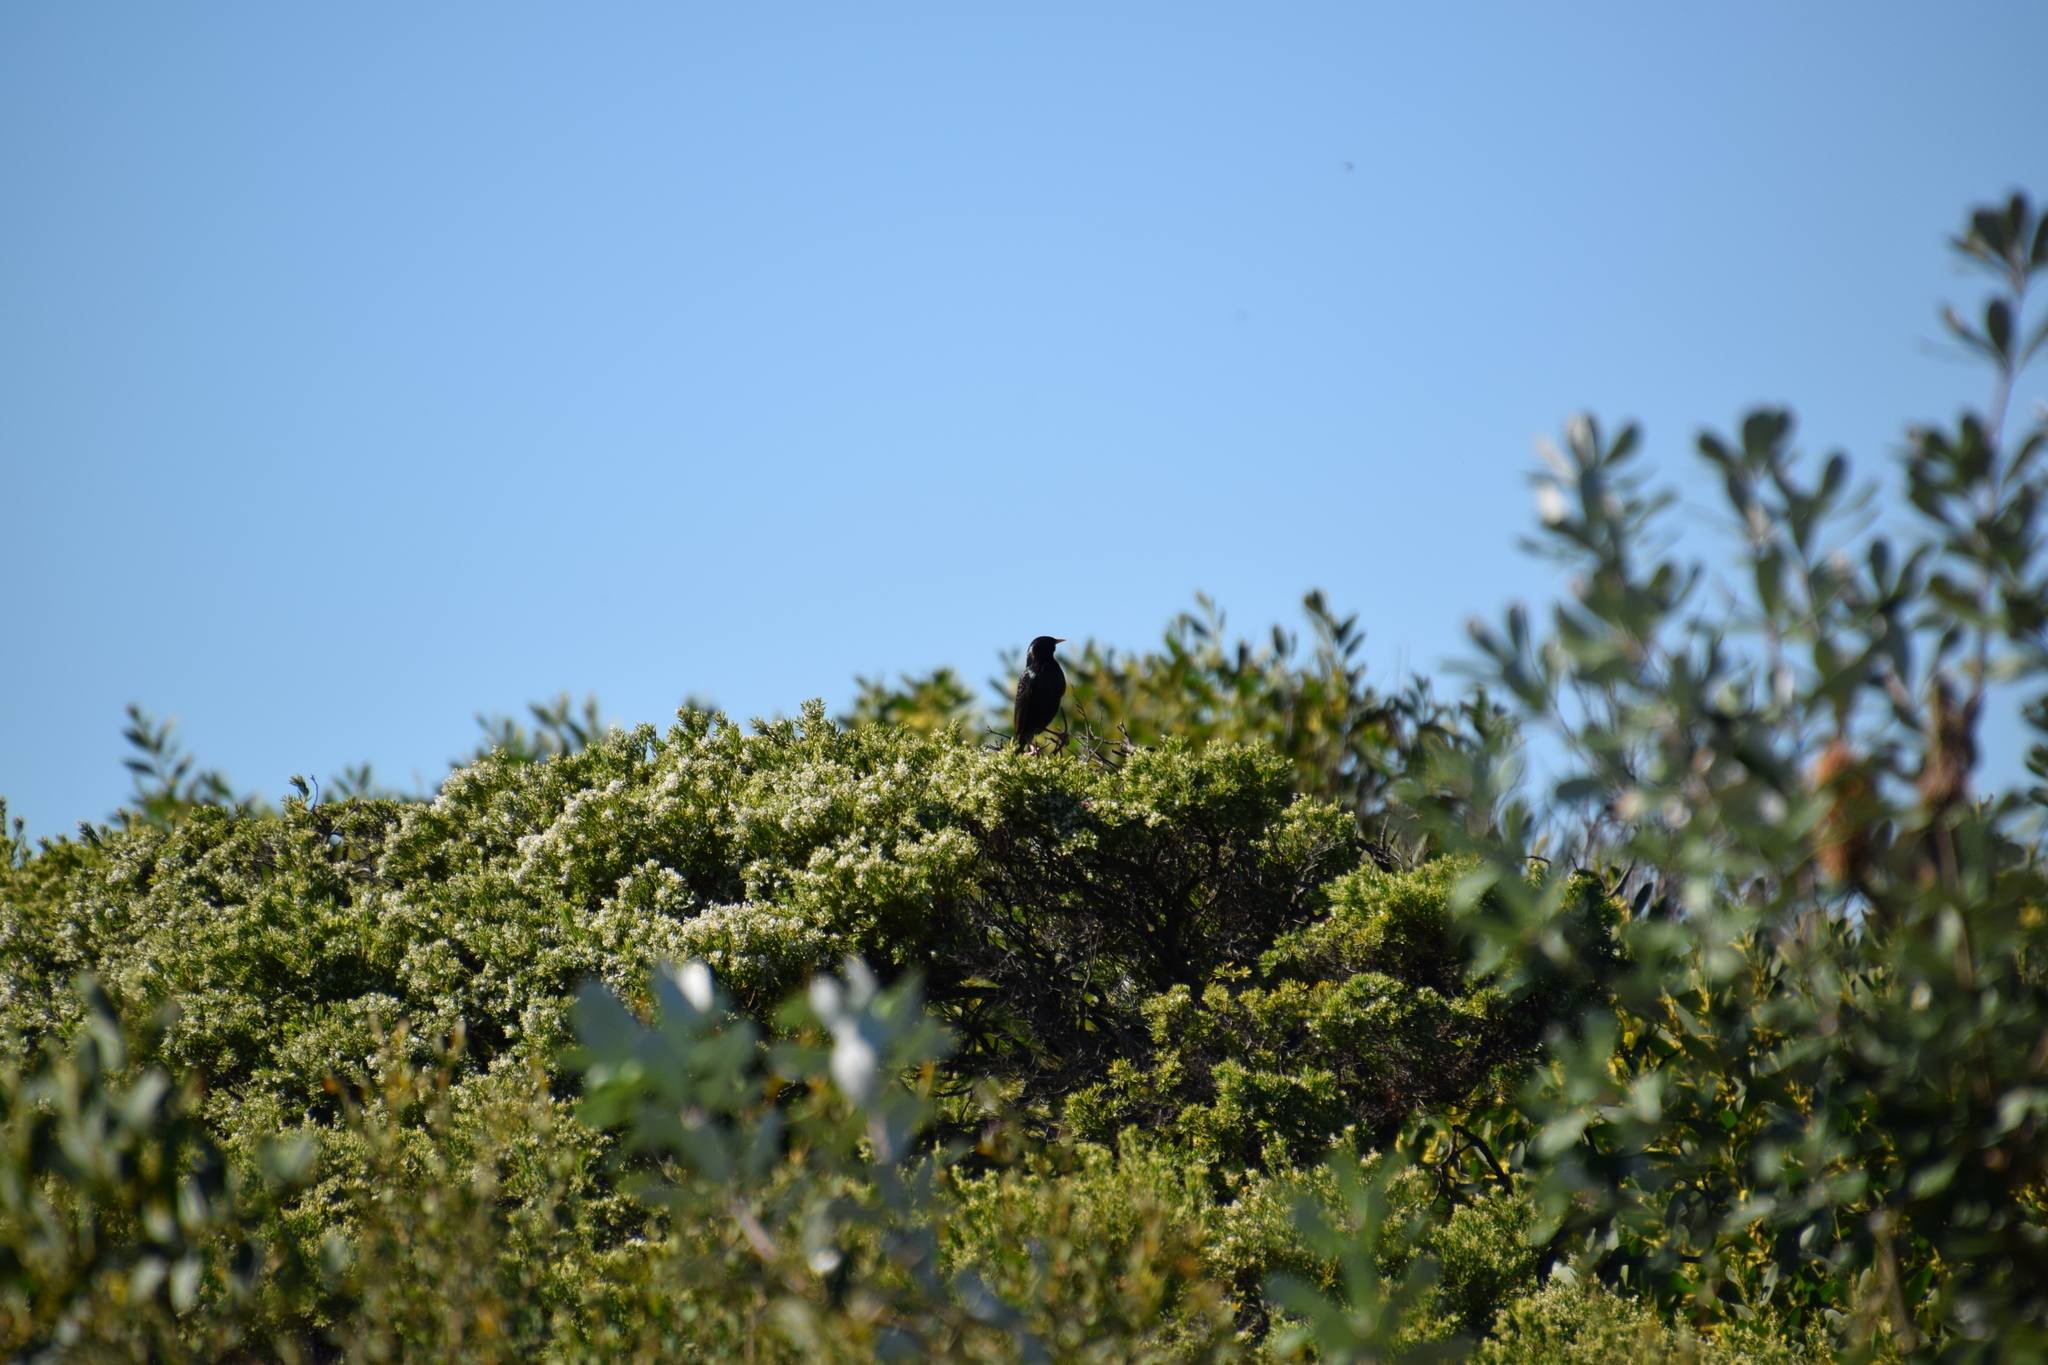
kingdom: Animalia
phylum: Chordata
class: Aves
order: Passeriformes
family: Sturnidae
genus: Sturnus
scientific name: Sturnus vulgaris
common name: Common starling
